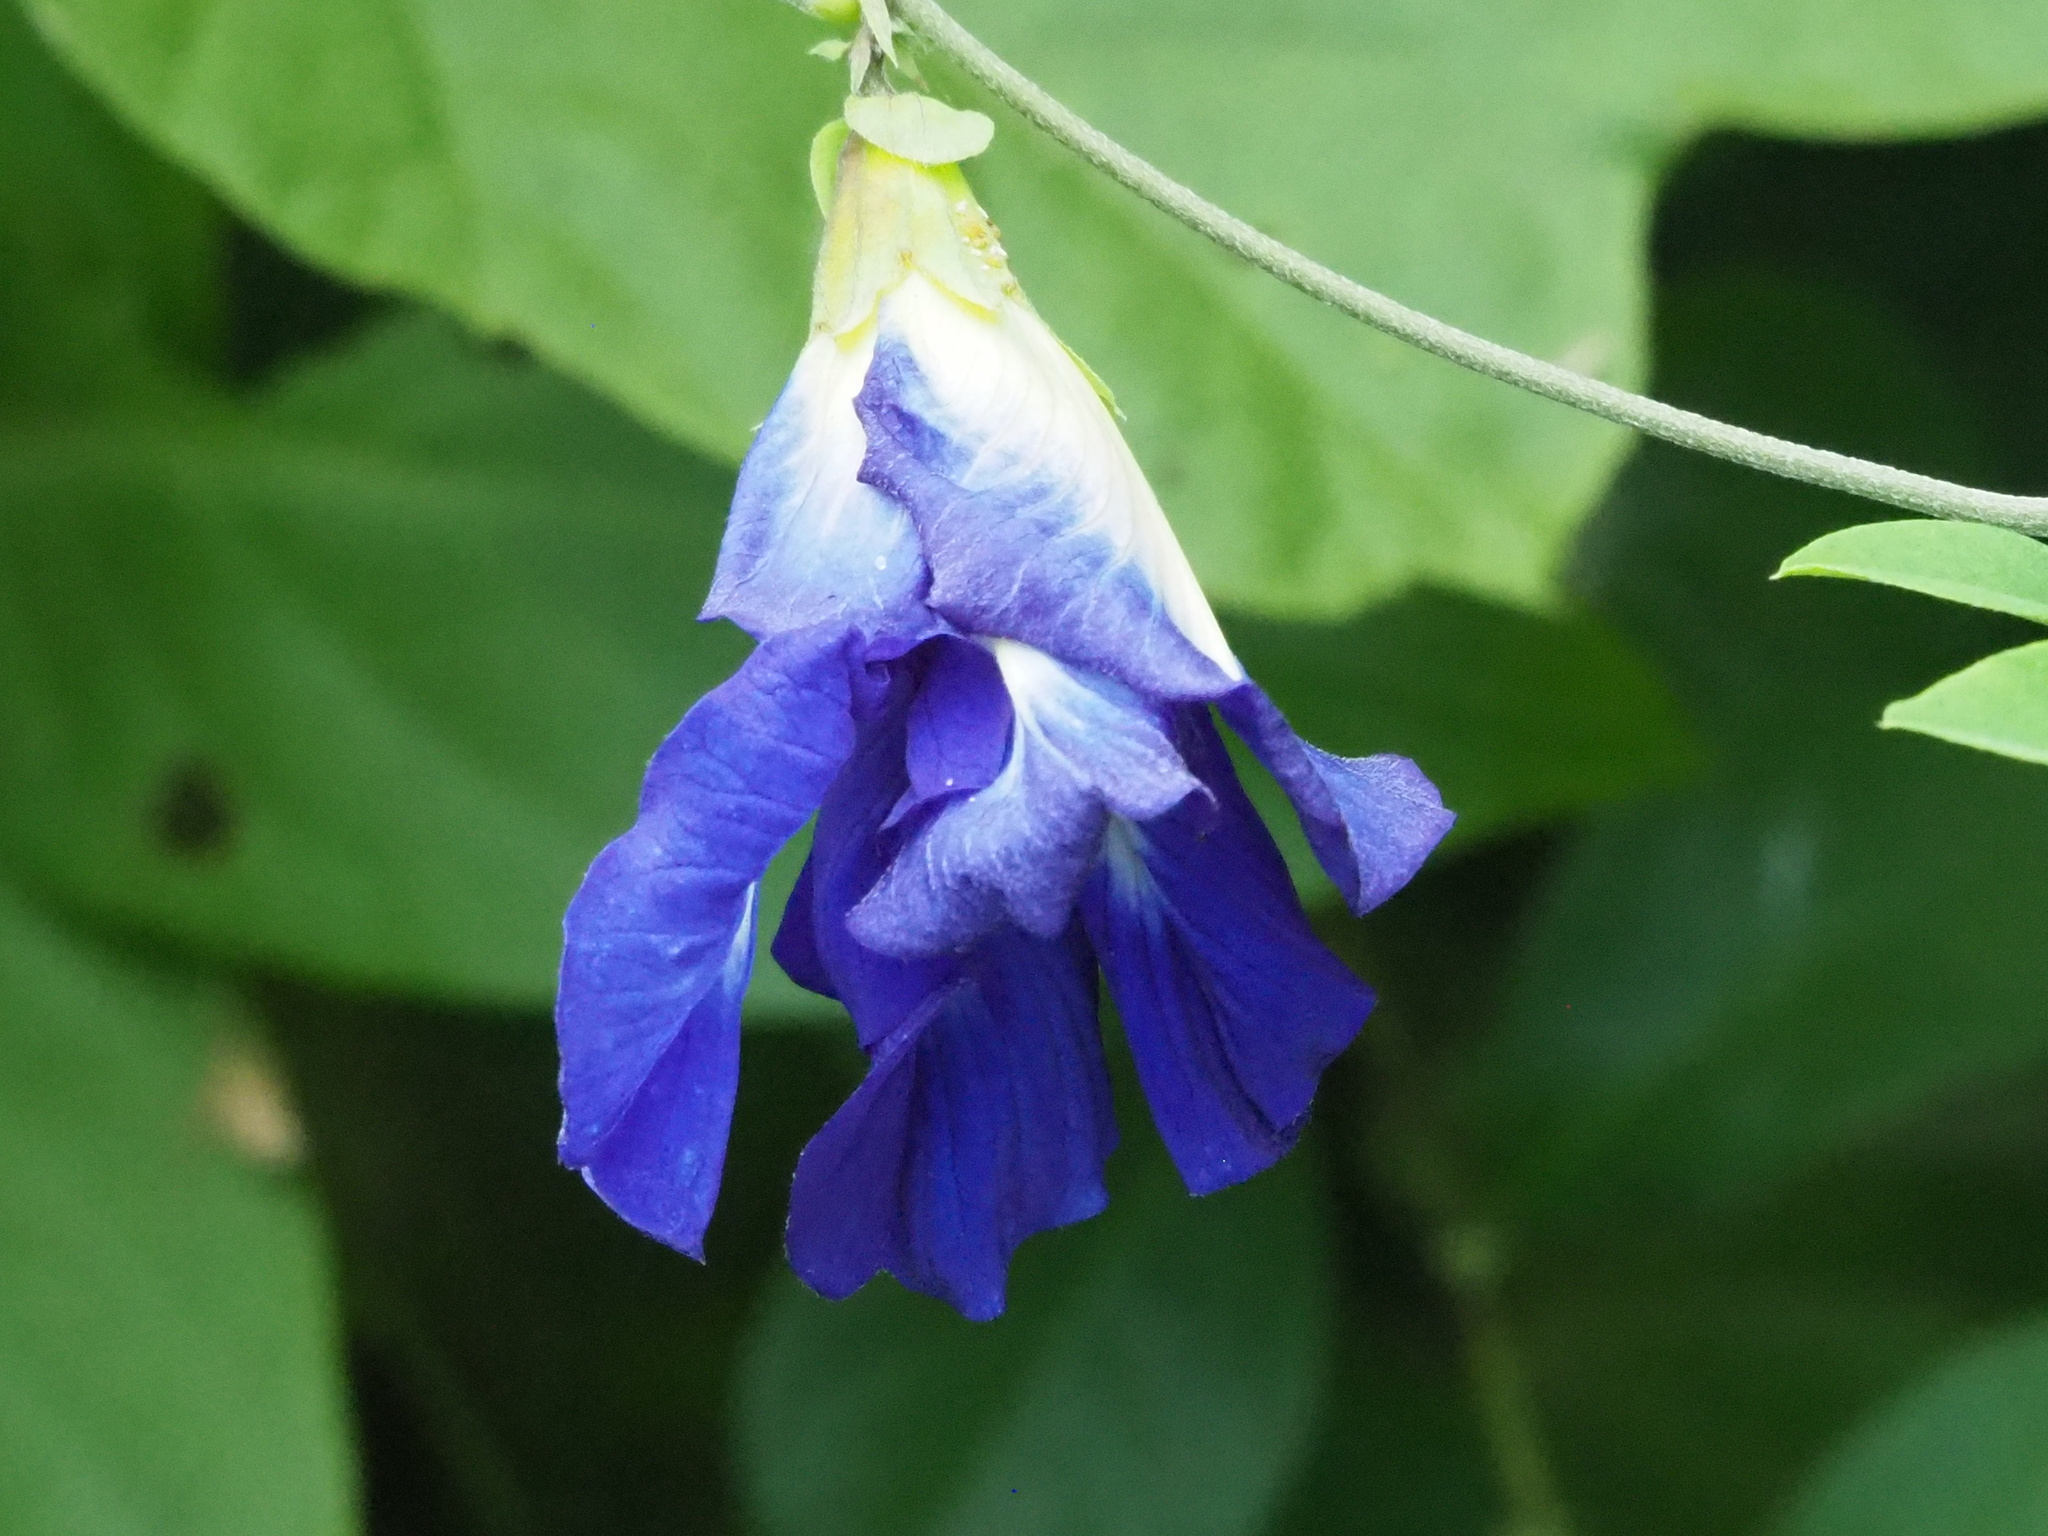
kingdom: Plantae
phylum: Tracheophyta
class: Magnoliopsida
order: Fabales
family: Fabaceae
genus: Clitoria
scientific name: Clitoria ternatea
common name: Asian pigeonwings
